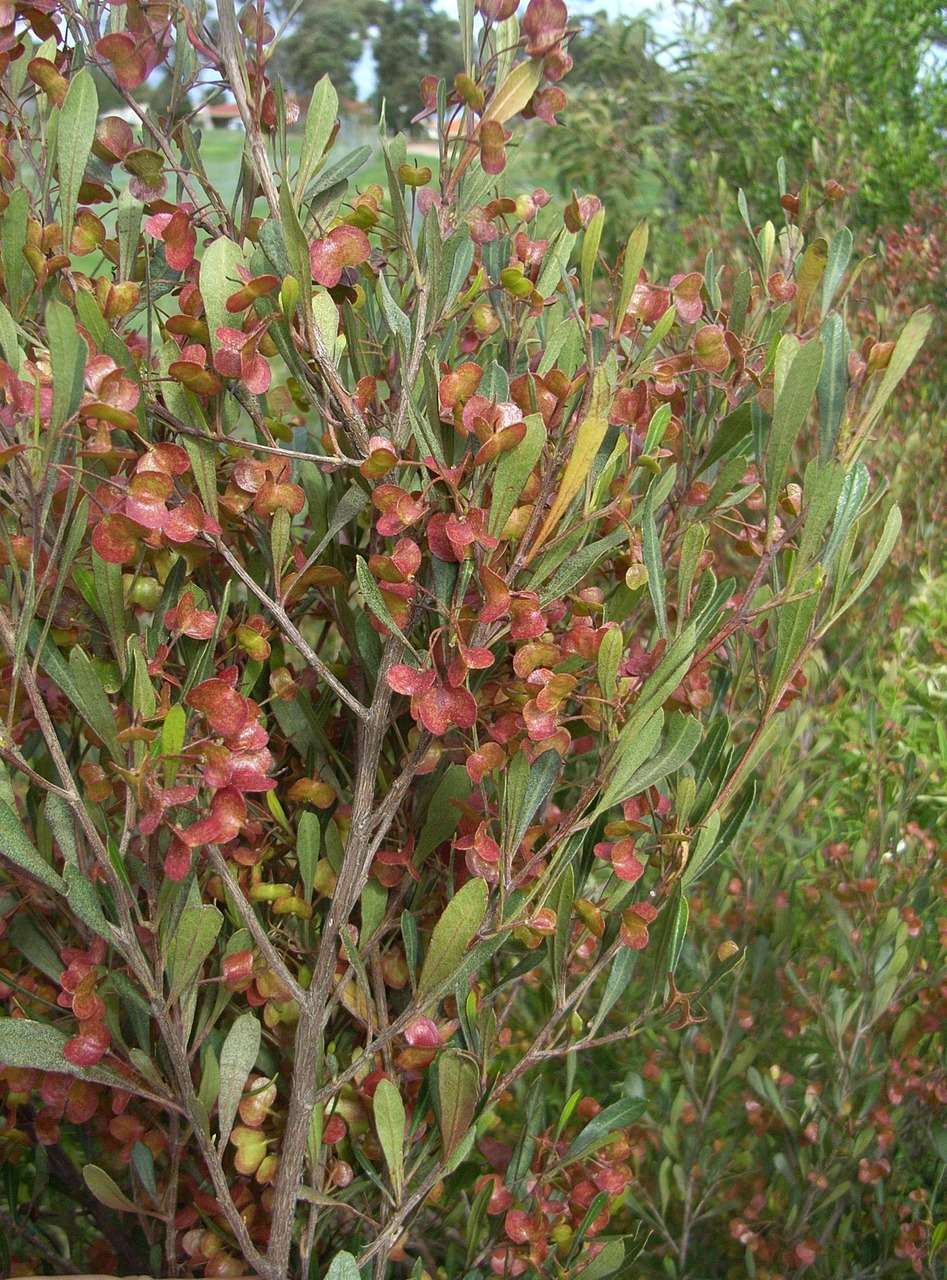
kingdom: Plantae
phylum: Tracheophyta
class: Magnoliopsida
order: Sapindales
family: Sapindaceae
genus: Dodonaea
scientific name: Dodonaea viscosa
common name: Hopbush
